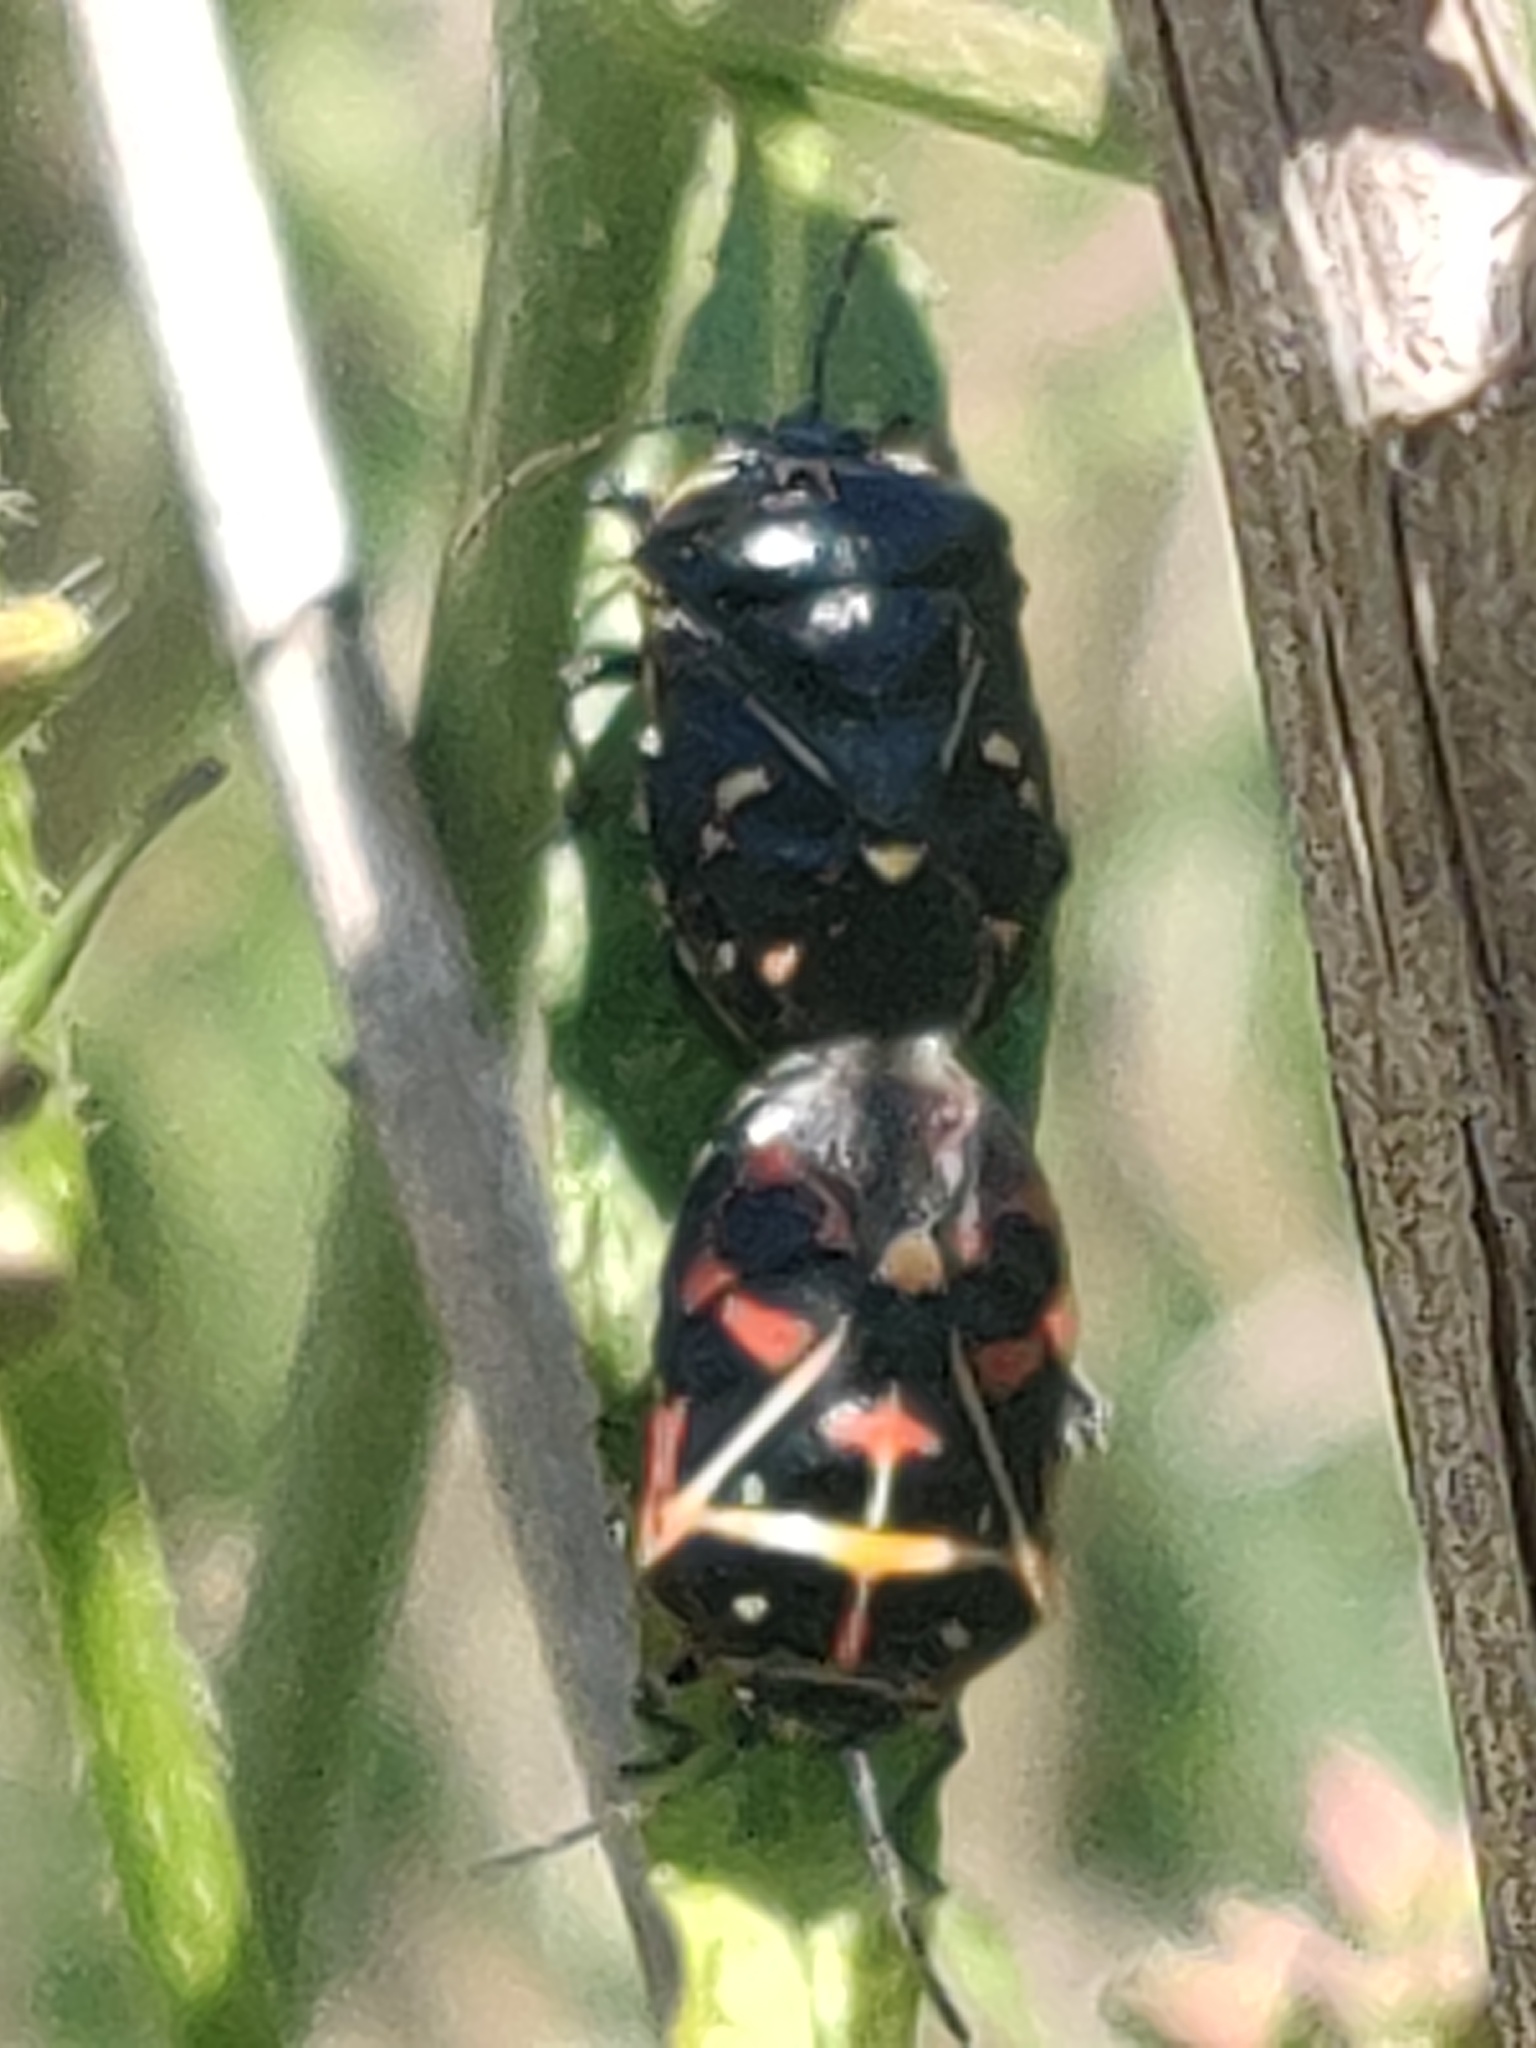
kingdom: Animalia
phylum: Arthropoda
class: Insecta
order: Hemiptera
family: Pentatomidae
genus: Murgantia
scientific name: Murgantia histrionica
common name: Harlequin bug
